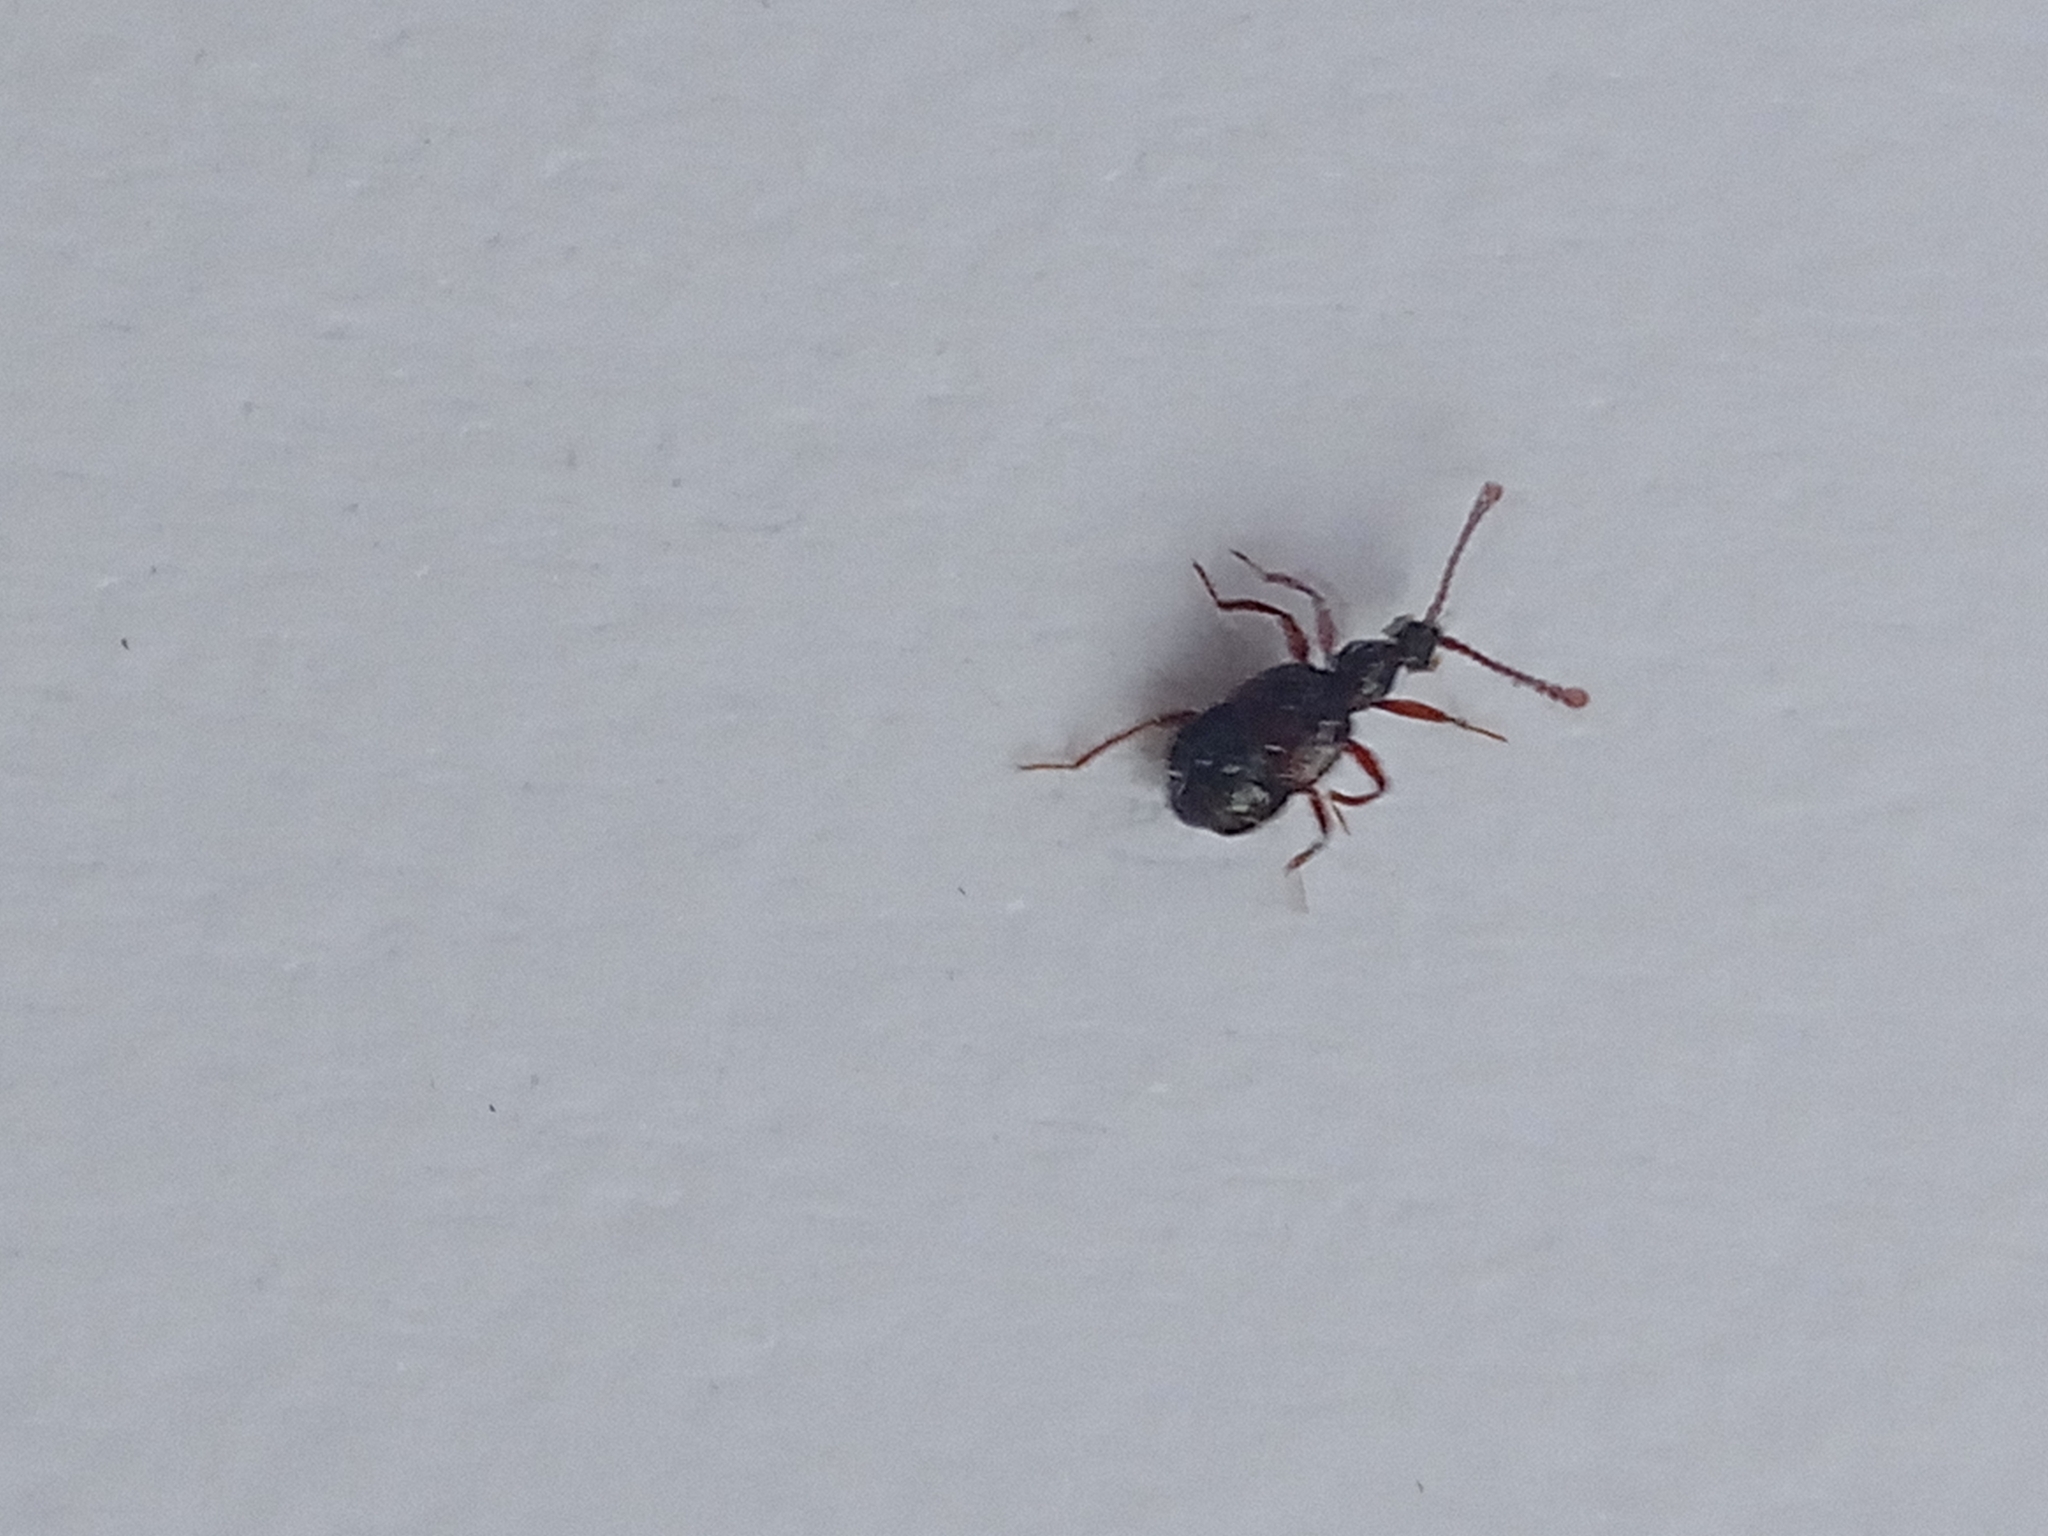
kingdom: Animalia
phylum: Arthropoda
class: Insecta
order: Coleoptera
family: Staphylinidae
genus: Tyrus
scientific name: Tyrus mucronatus
